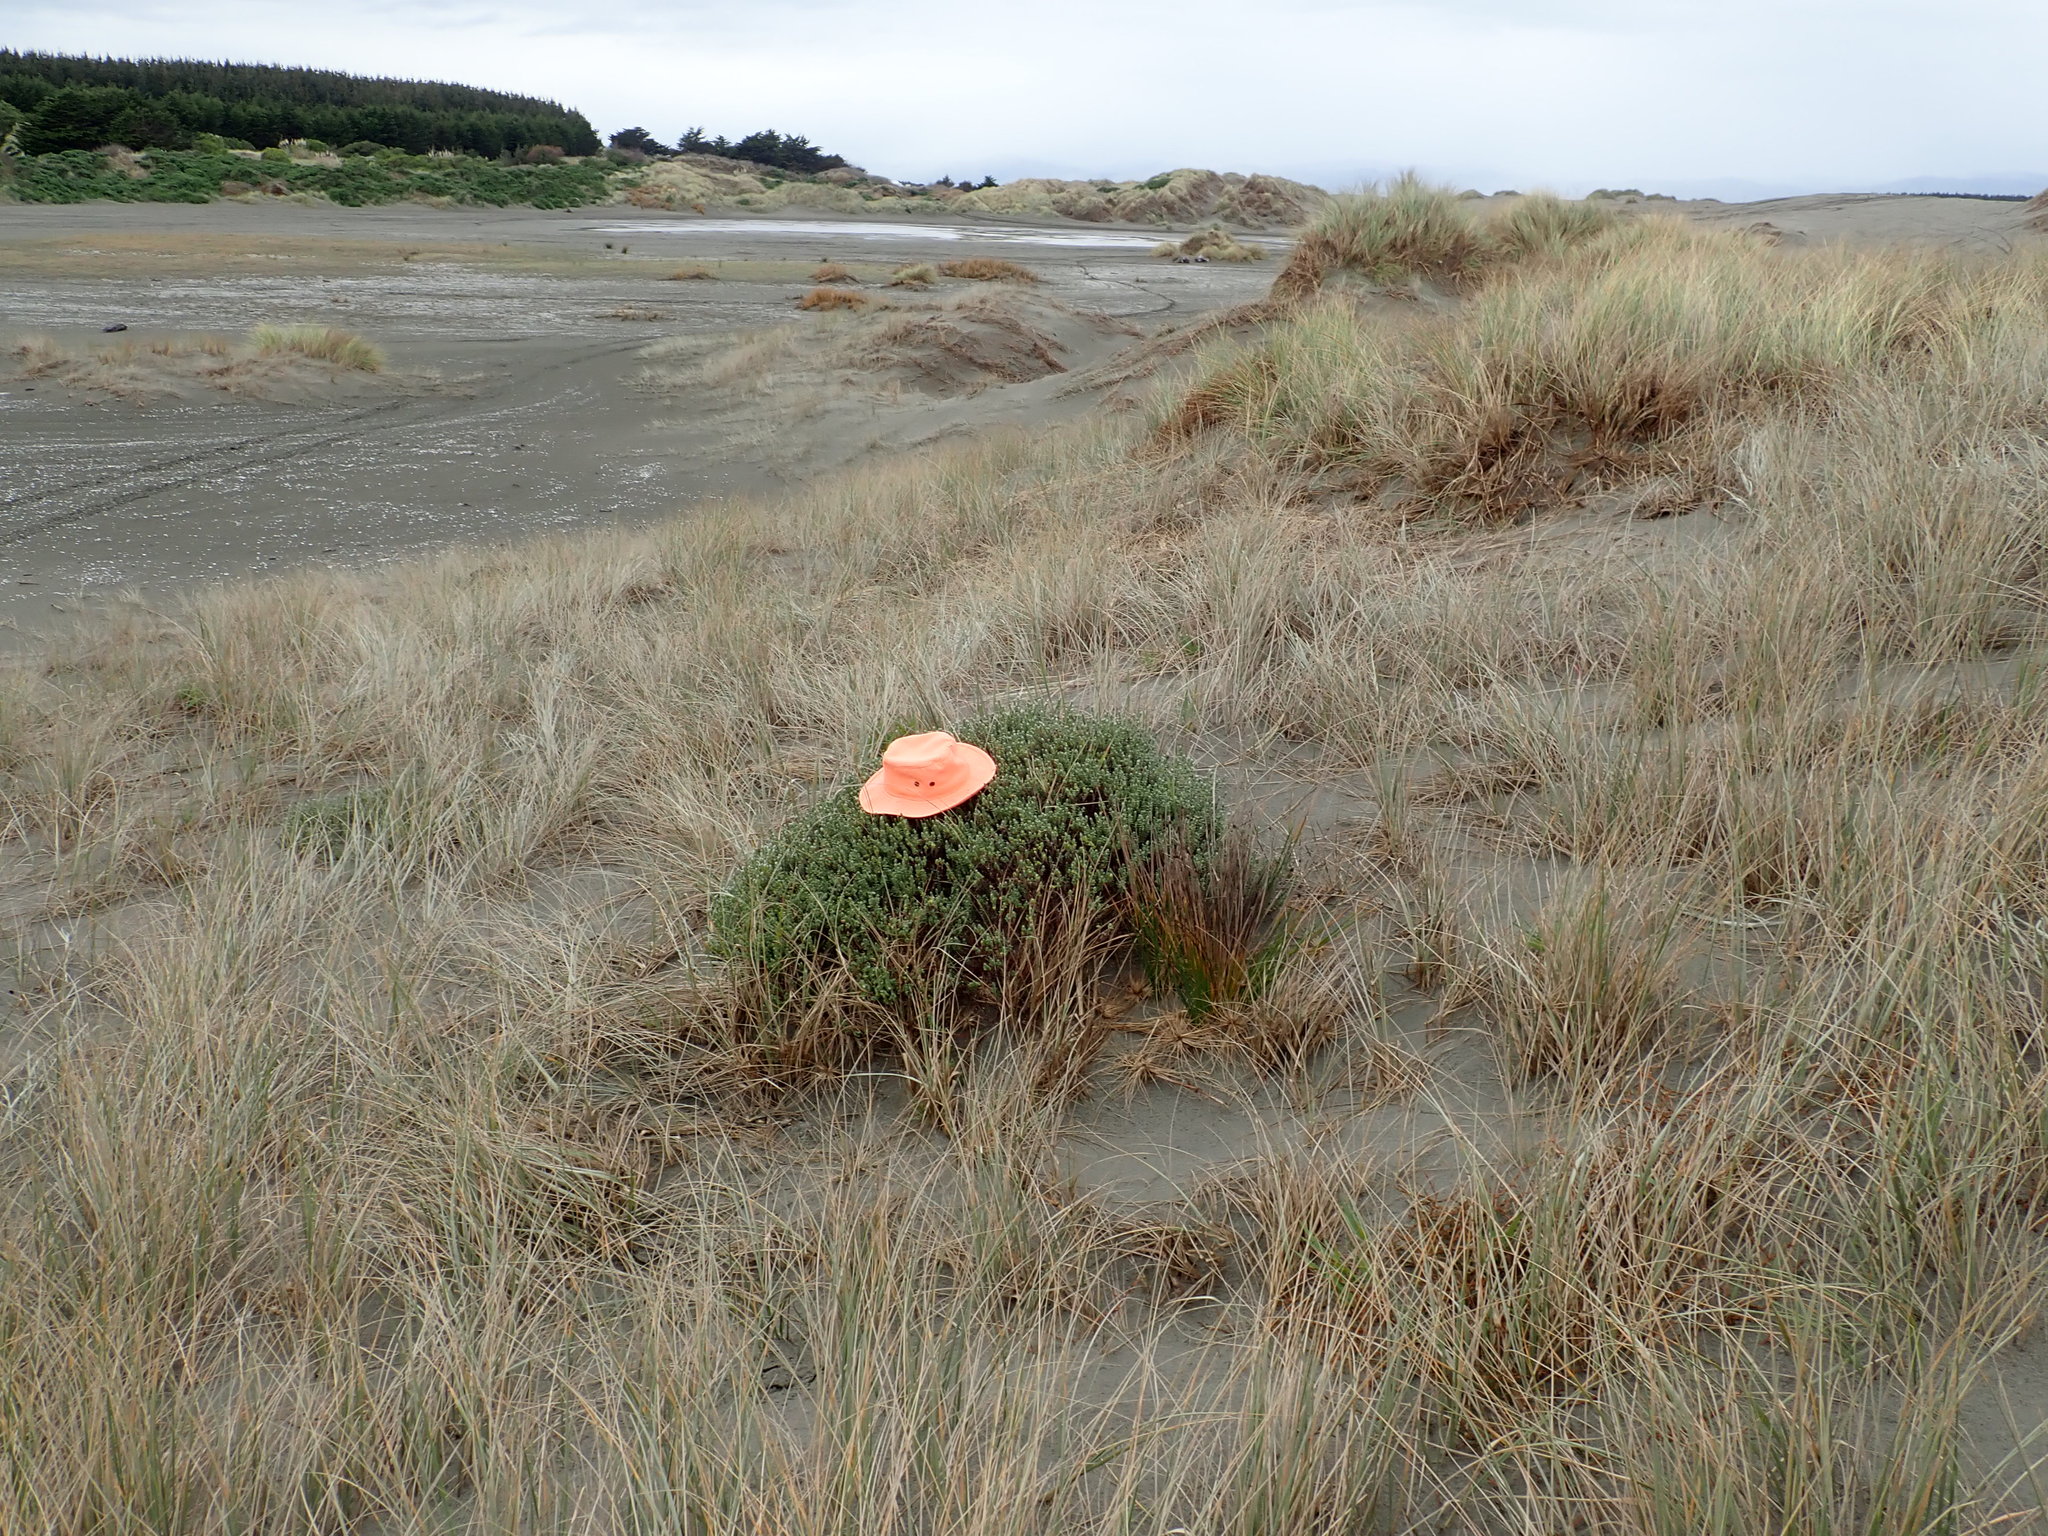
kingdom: Animalia
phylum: Arthropoda
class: Arachnida
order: Araneae
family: Theridiidae
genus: Latrodectus
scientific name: Latrodectus katipo
